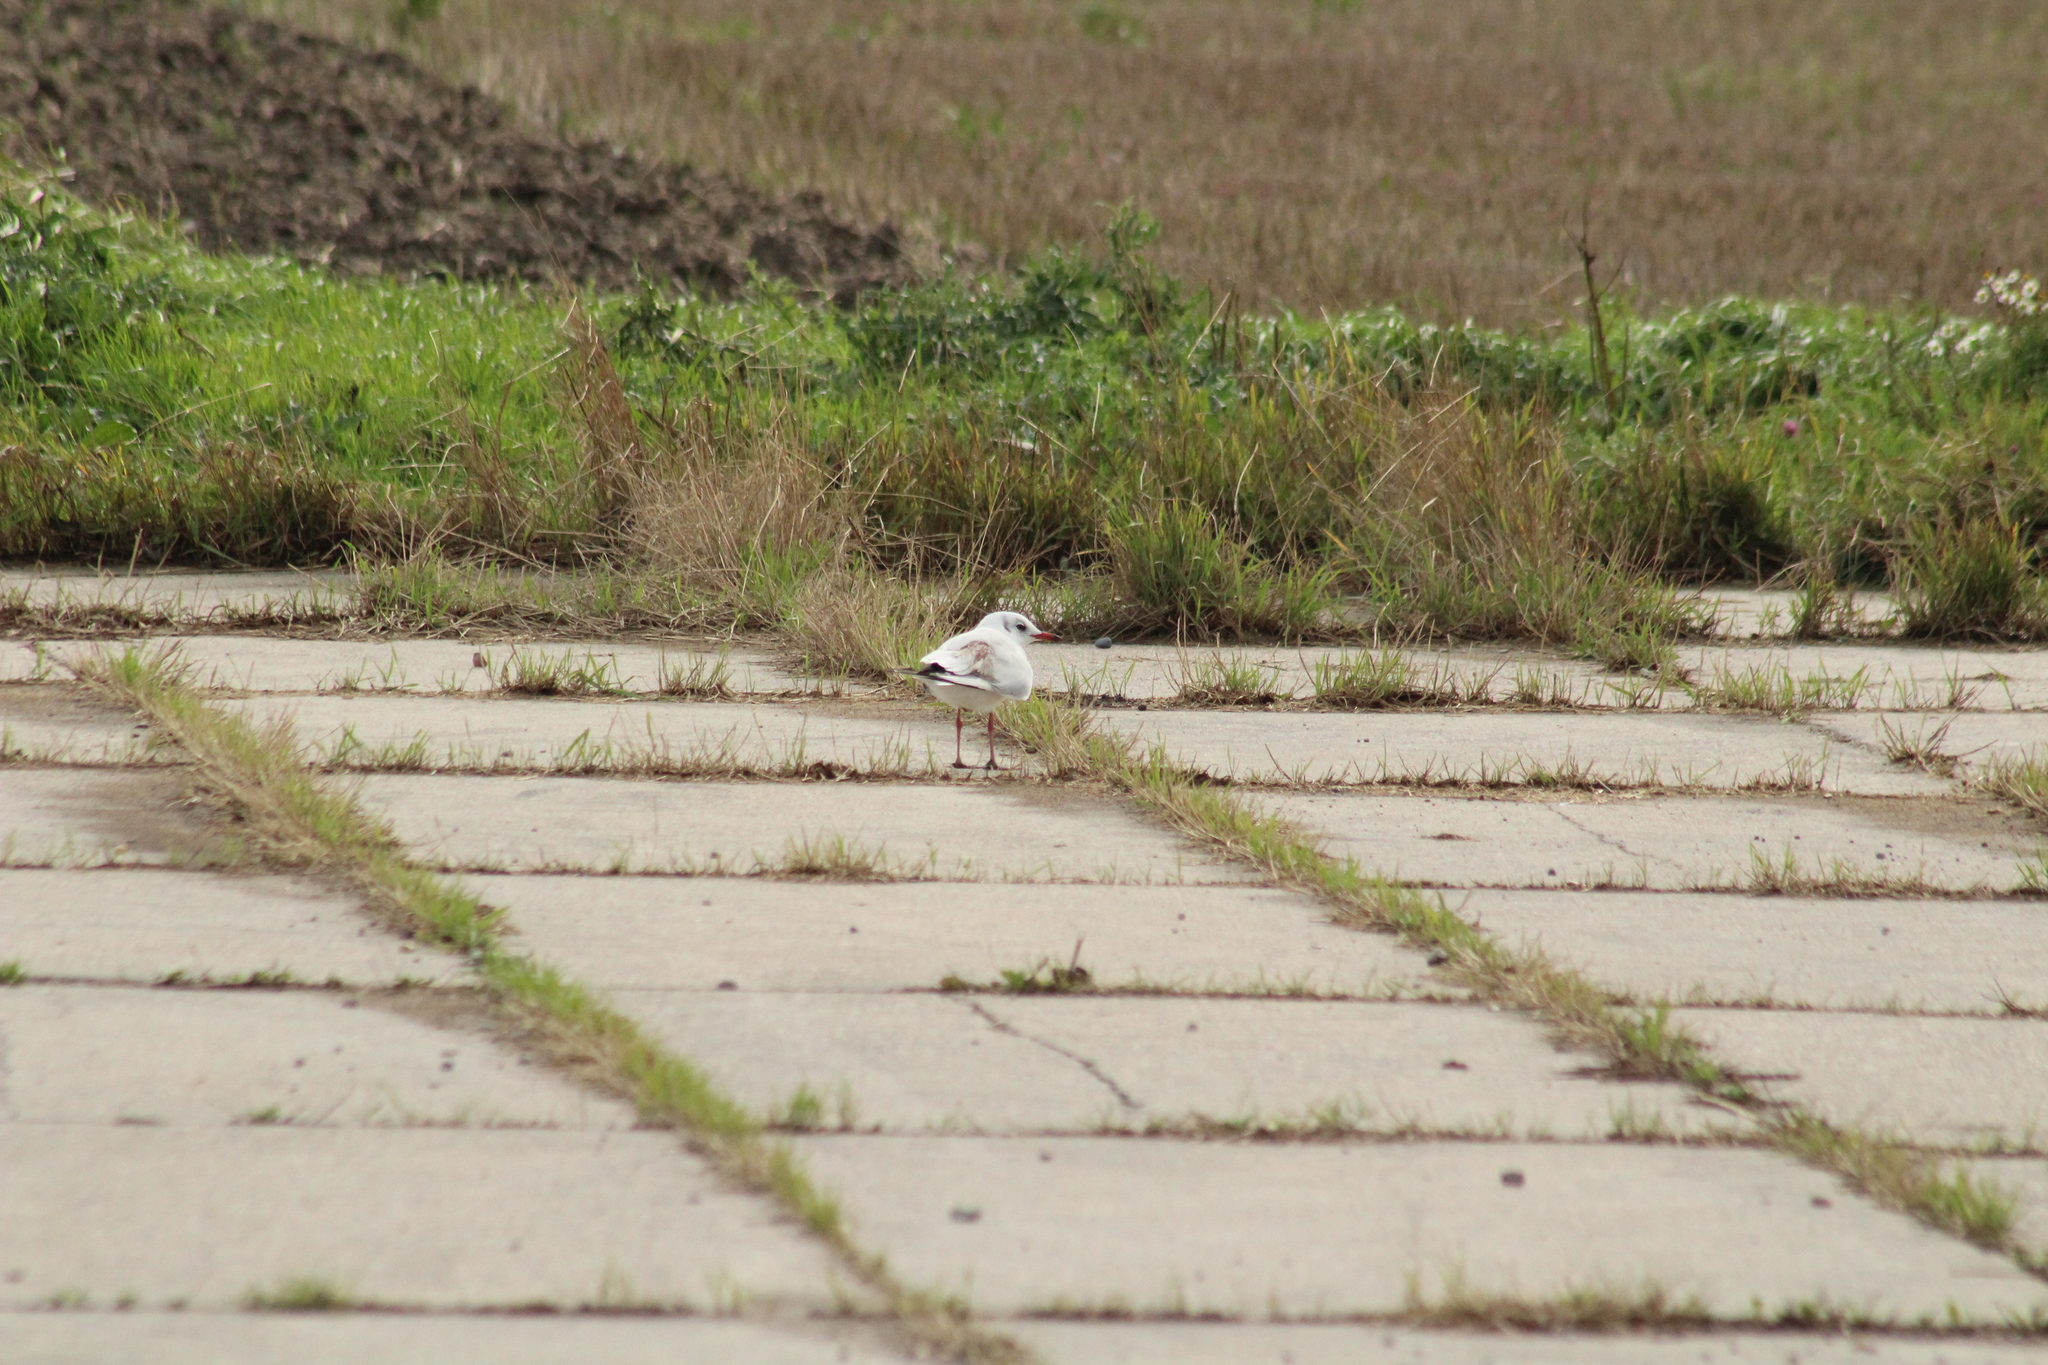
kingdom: Animalia
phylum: Chordata
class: Aves
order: Charadriiformes
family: Laridae
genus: Chroicocephalus
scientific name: Chroicocephalus ridibundus
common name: Black-headed gull
